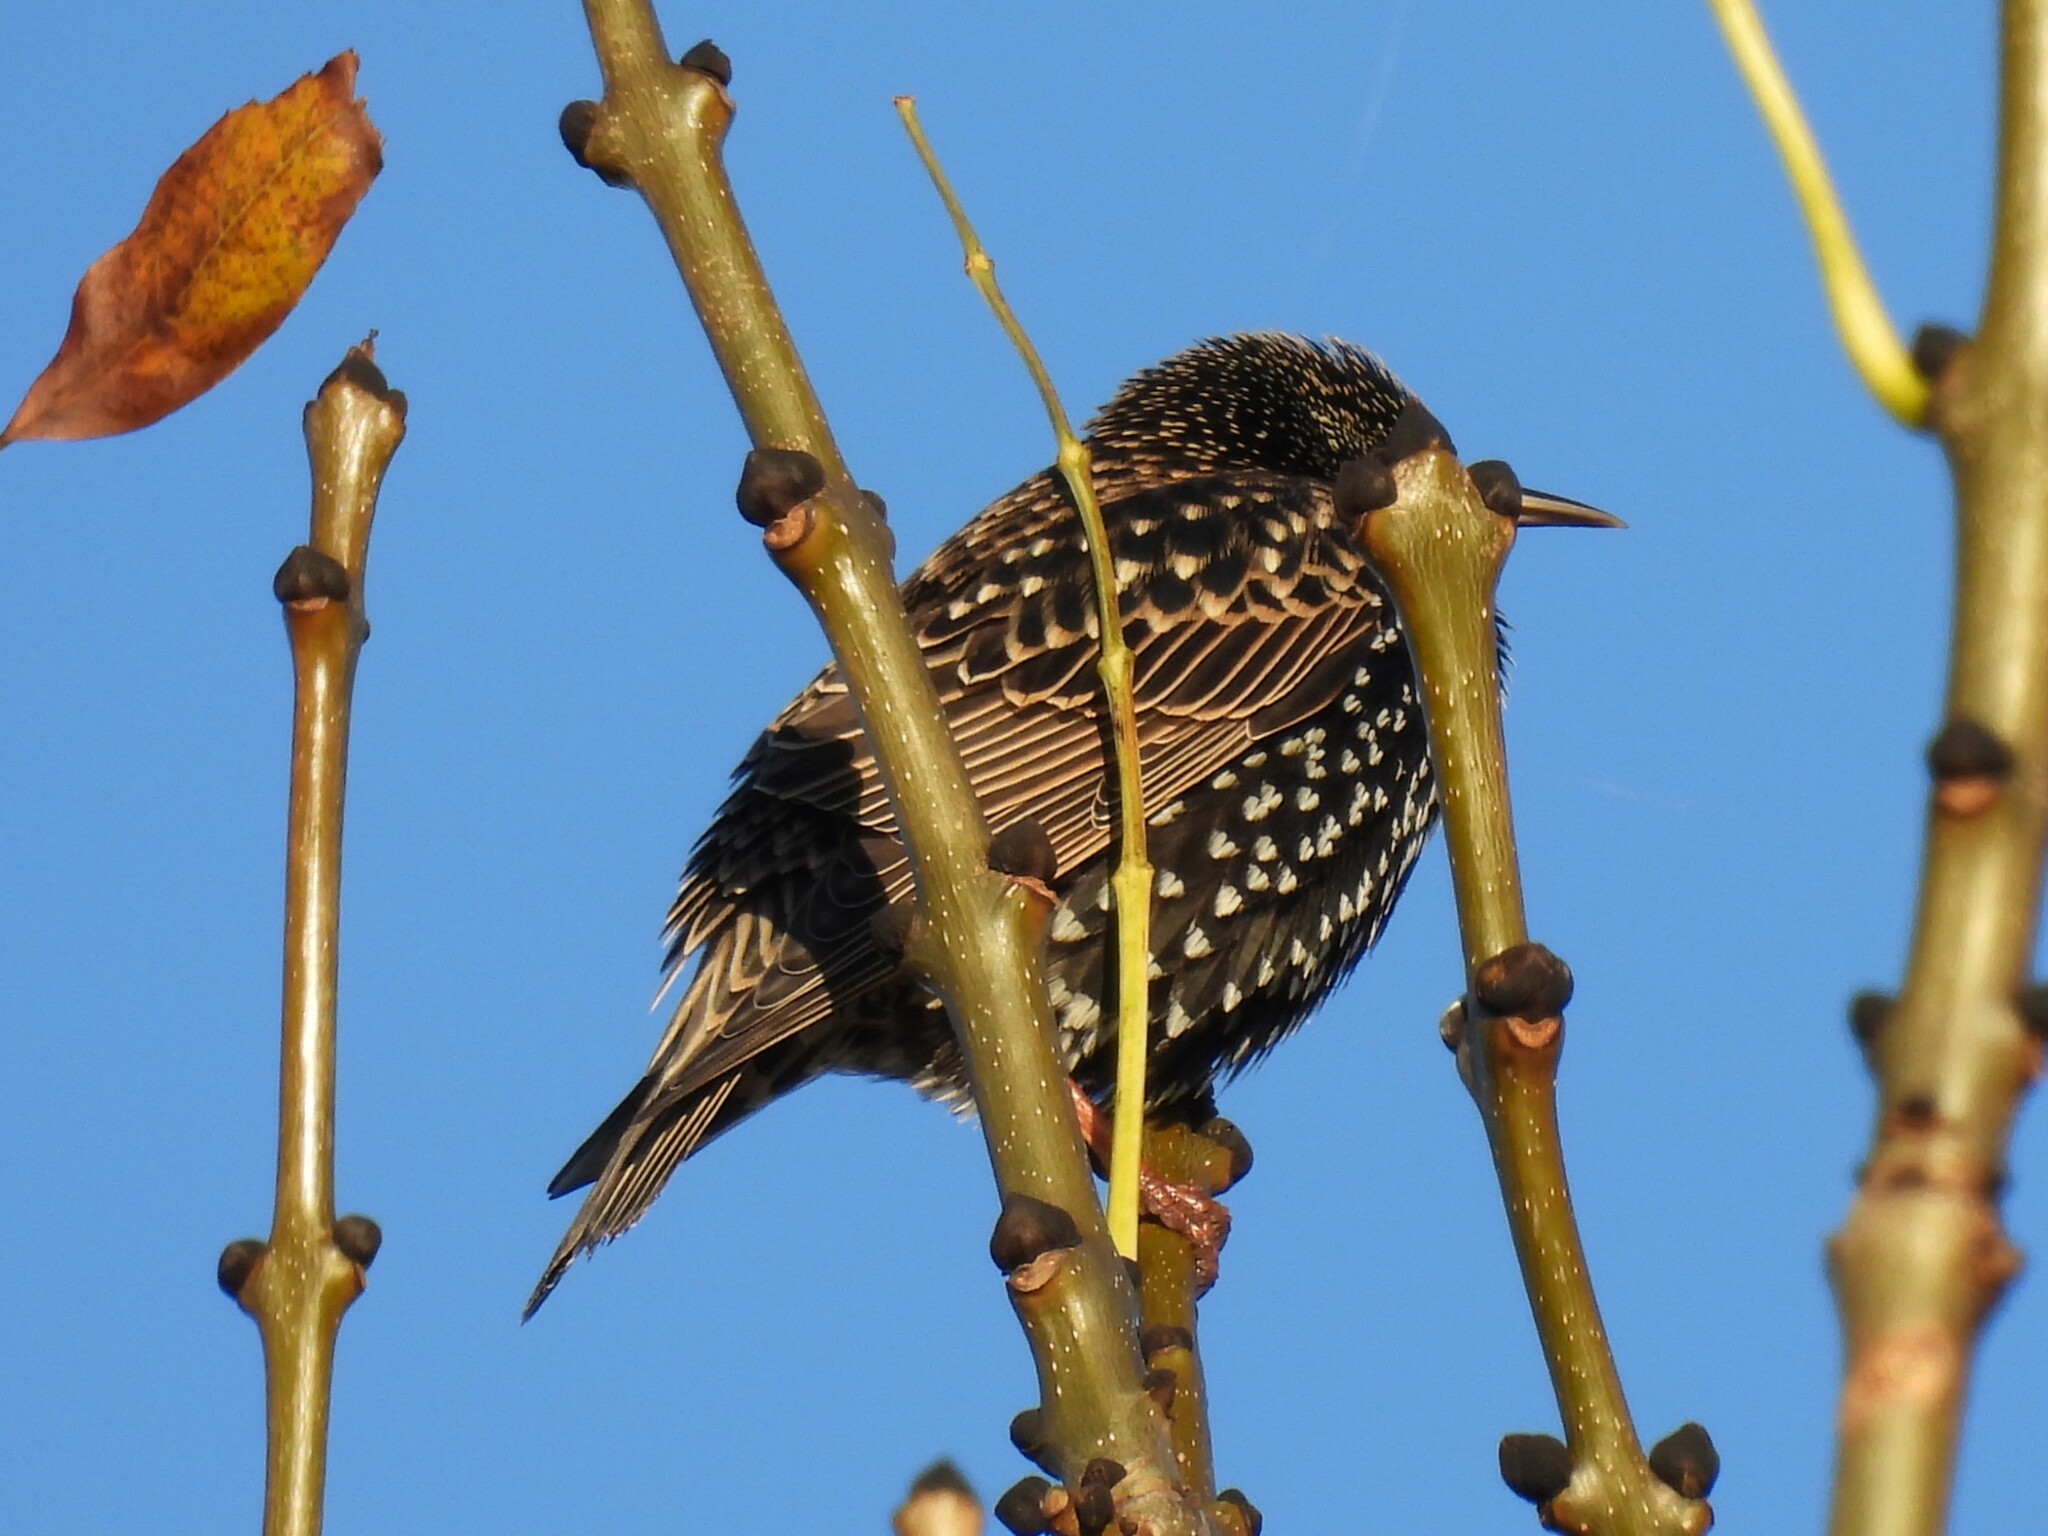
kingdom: Animalia
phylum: Chordata
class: Aves
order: Passeriformes
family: Sturnidae
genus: Sturnus
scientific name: Sturnus vulgaris
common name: Common starling
